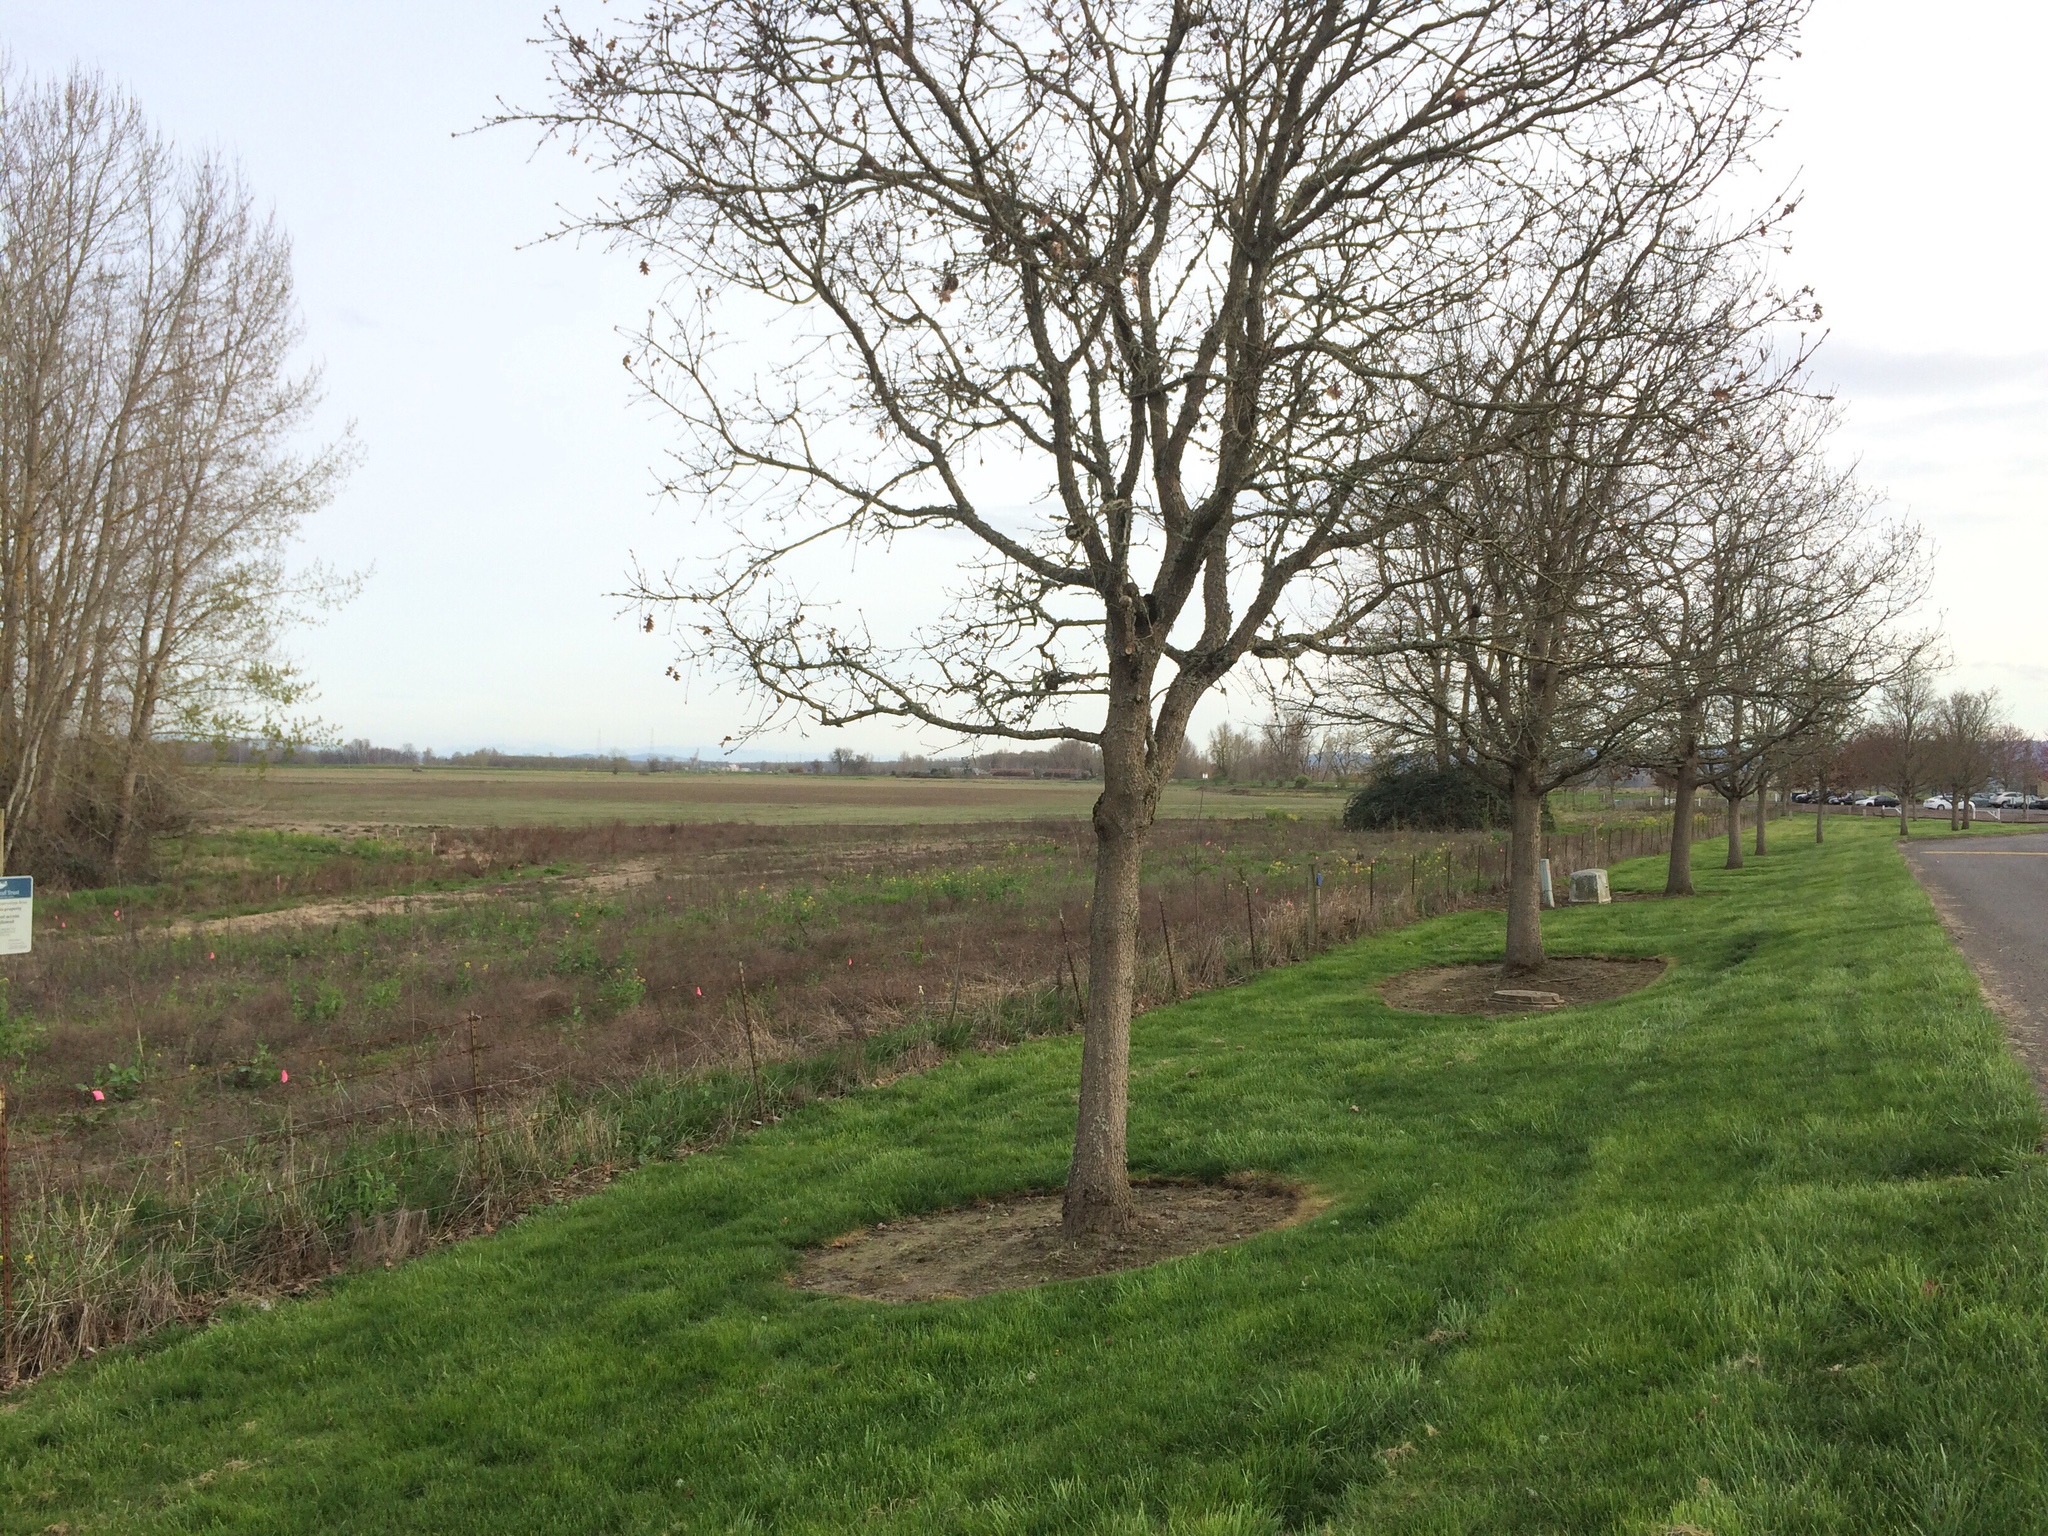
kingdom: Animalia
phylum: Arthropoda
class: Insecta
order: Hymenoptera
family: Cynipidae
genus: Andricus
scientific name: Andricus quercuscalifornicus
